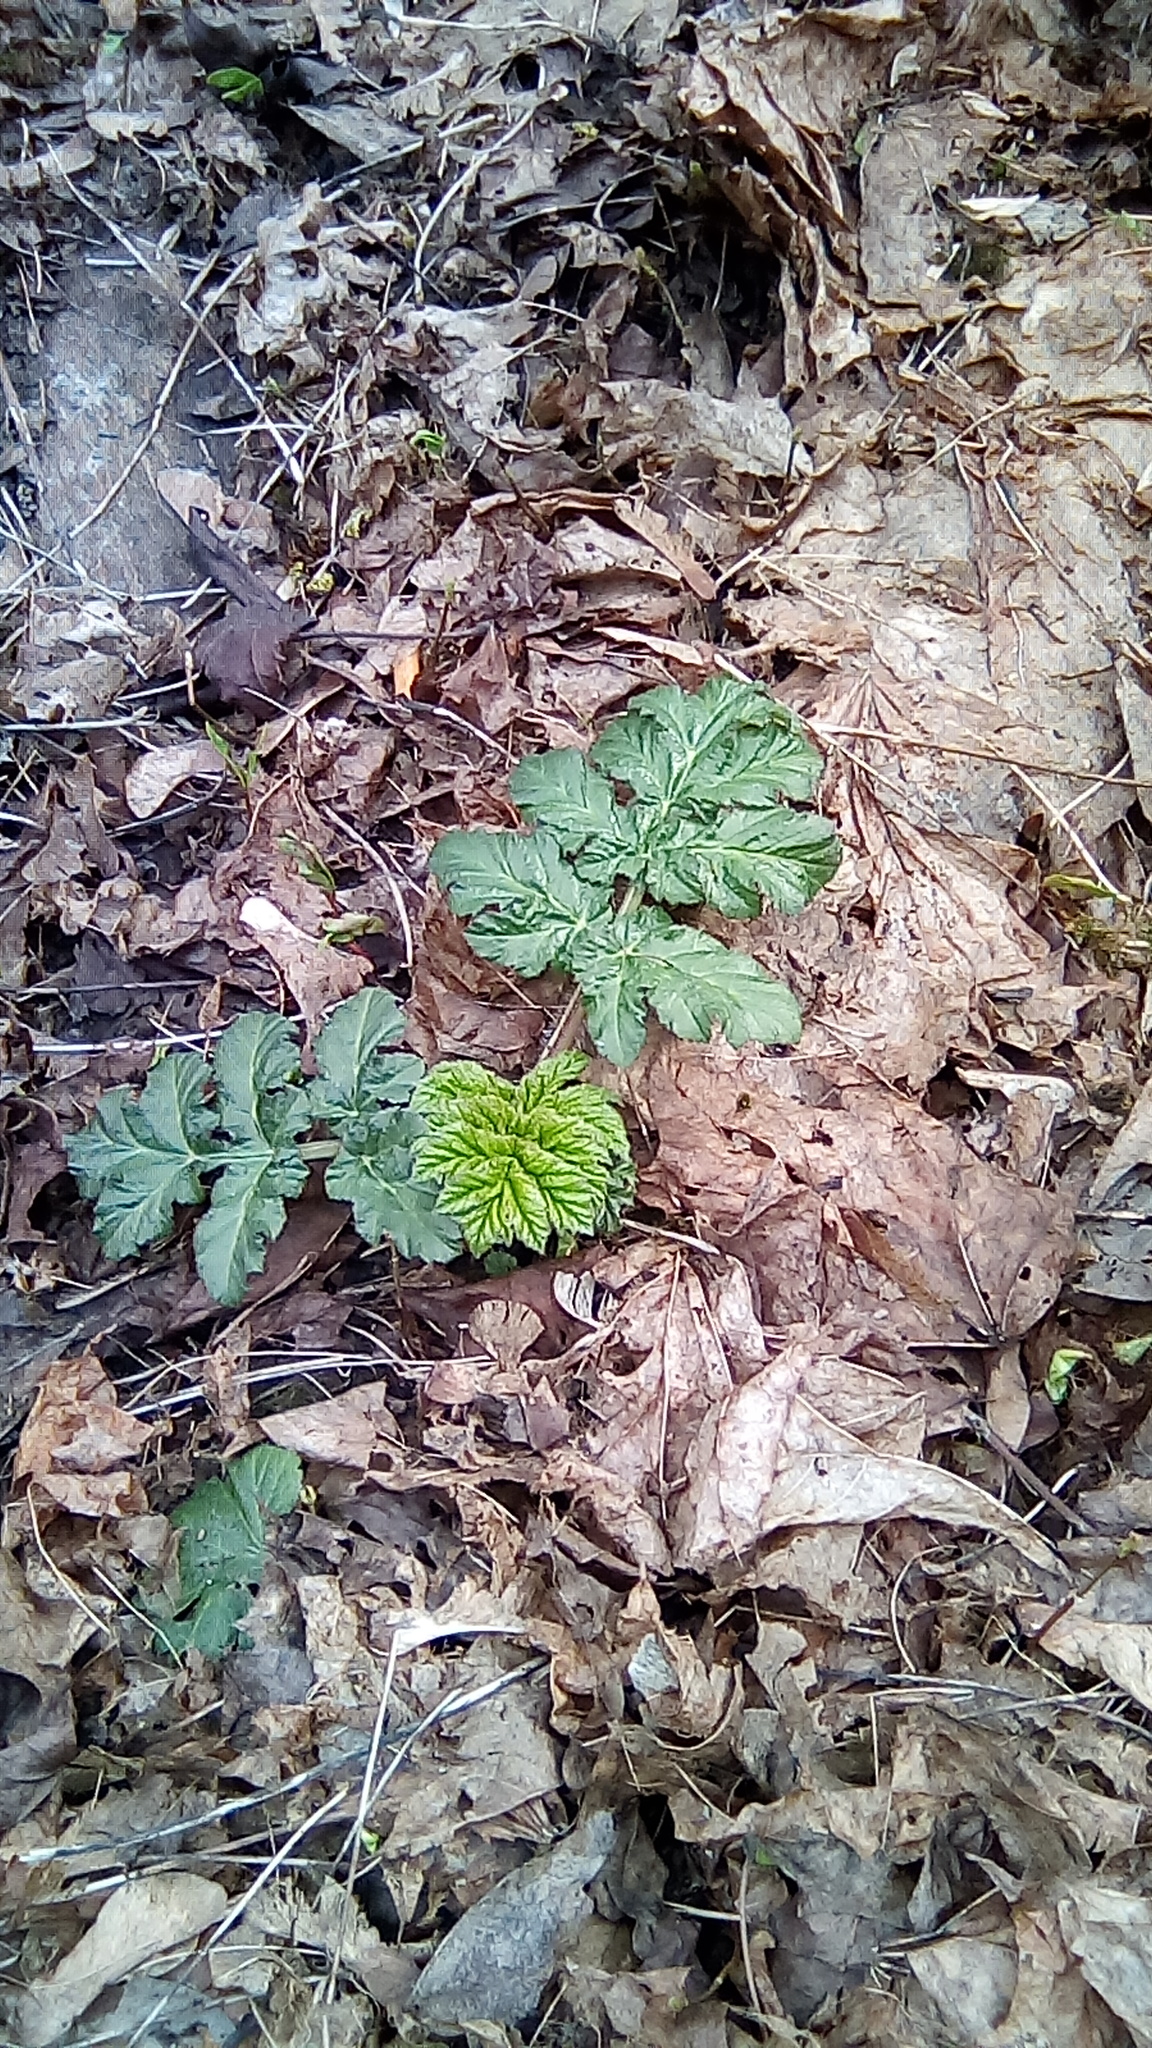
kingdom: Plantae
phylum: Tracheophyta
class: Magnoliopsida
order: Apiales
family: Apiaceae
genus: Heracleum
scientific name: Heracleum sosnowskyi
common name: Sosnowsky's hogweed
